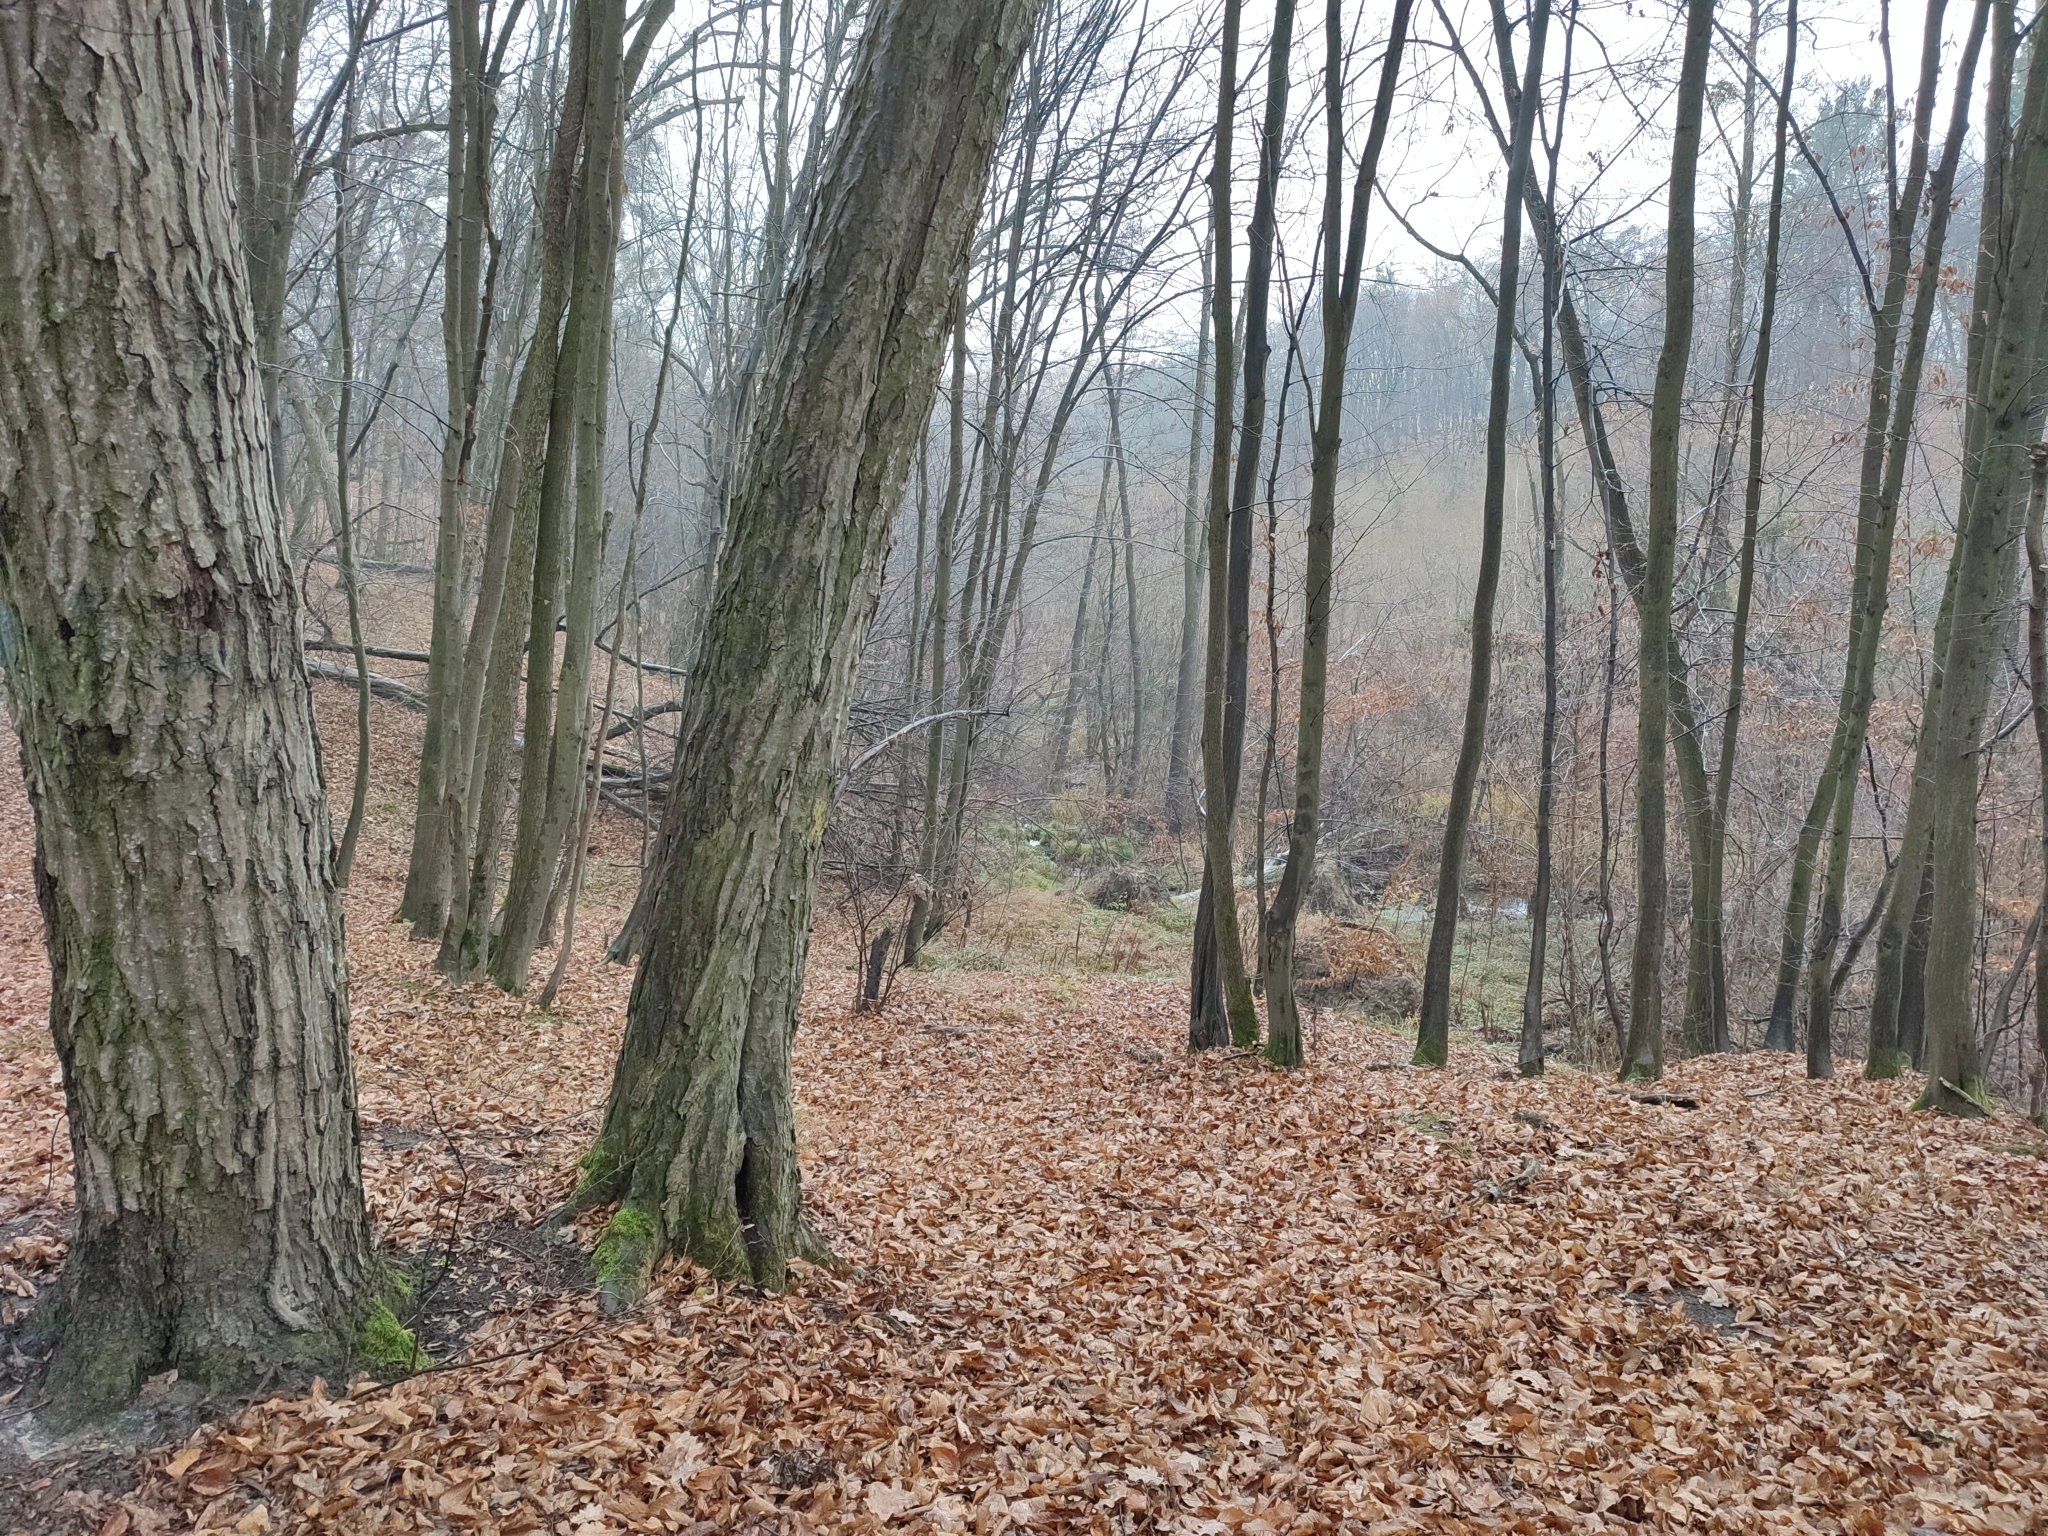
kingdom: Plantae
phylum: Tracheophyta
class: Magnoliopsida
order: Fagales
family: Betulaceae
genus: Carpinus
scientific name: Carpinus betulus
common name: Hornbeam
